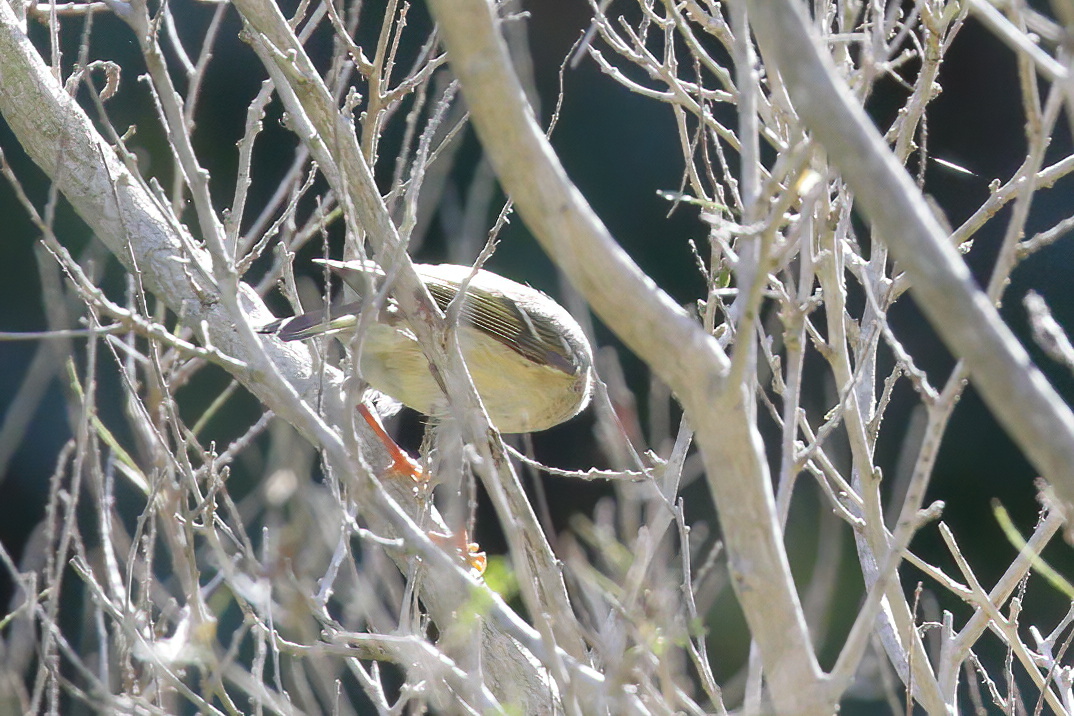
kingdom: Animalia
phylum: Chordata
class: Aves
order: Passeriformes
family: Regulidae
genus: Regulus
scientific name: Regulus calendula
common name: Ruby-crowned kinglet
